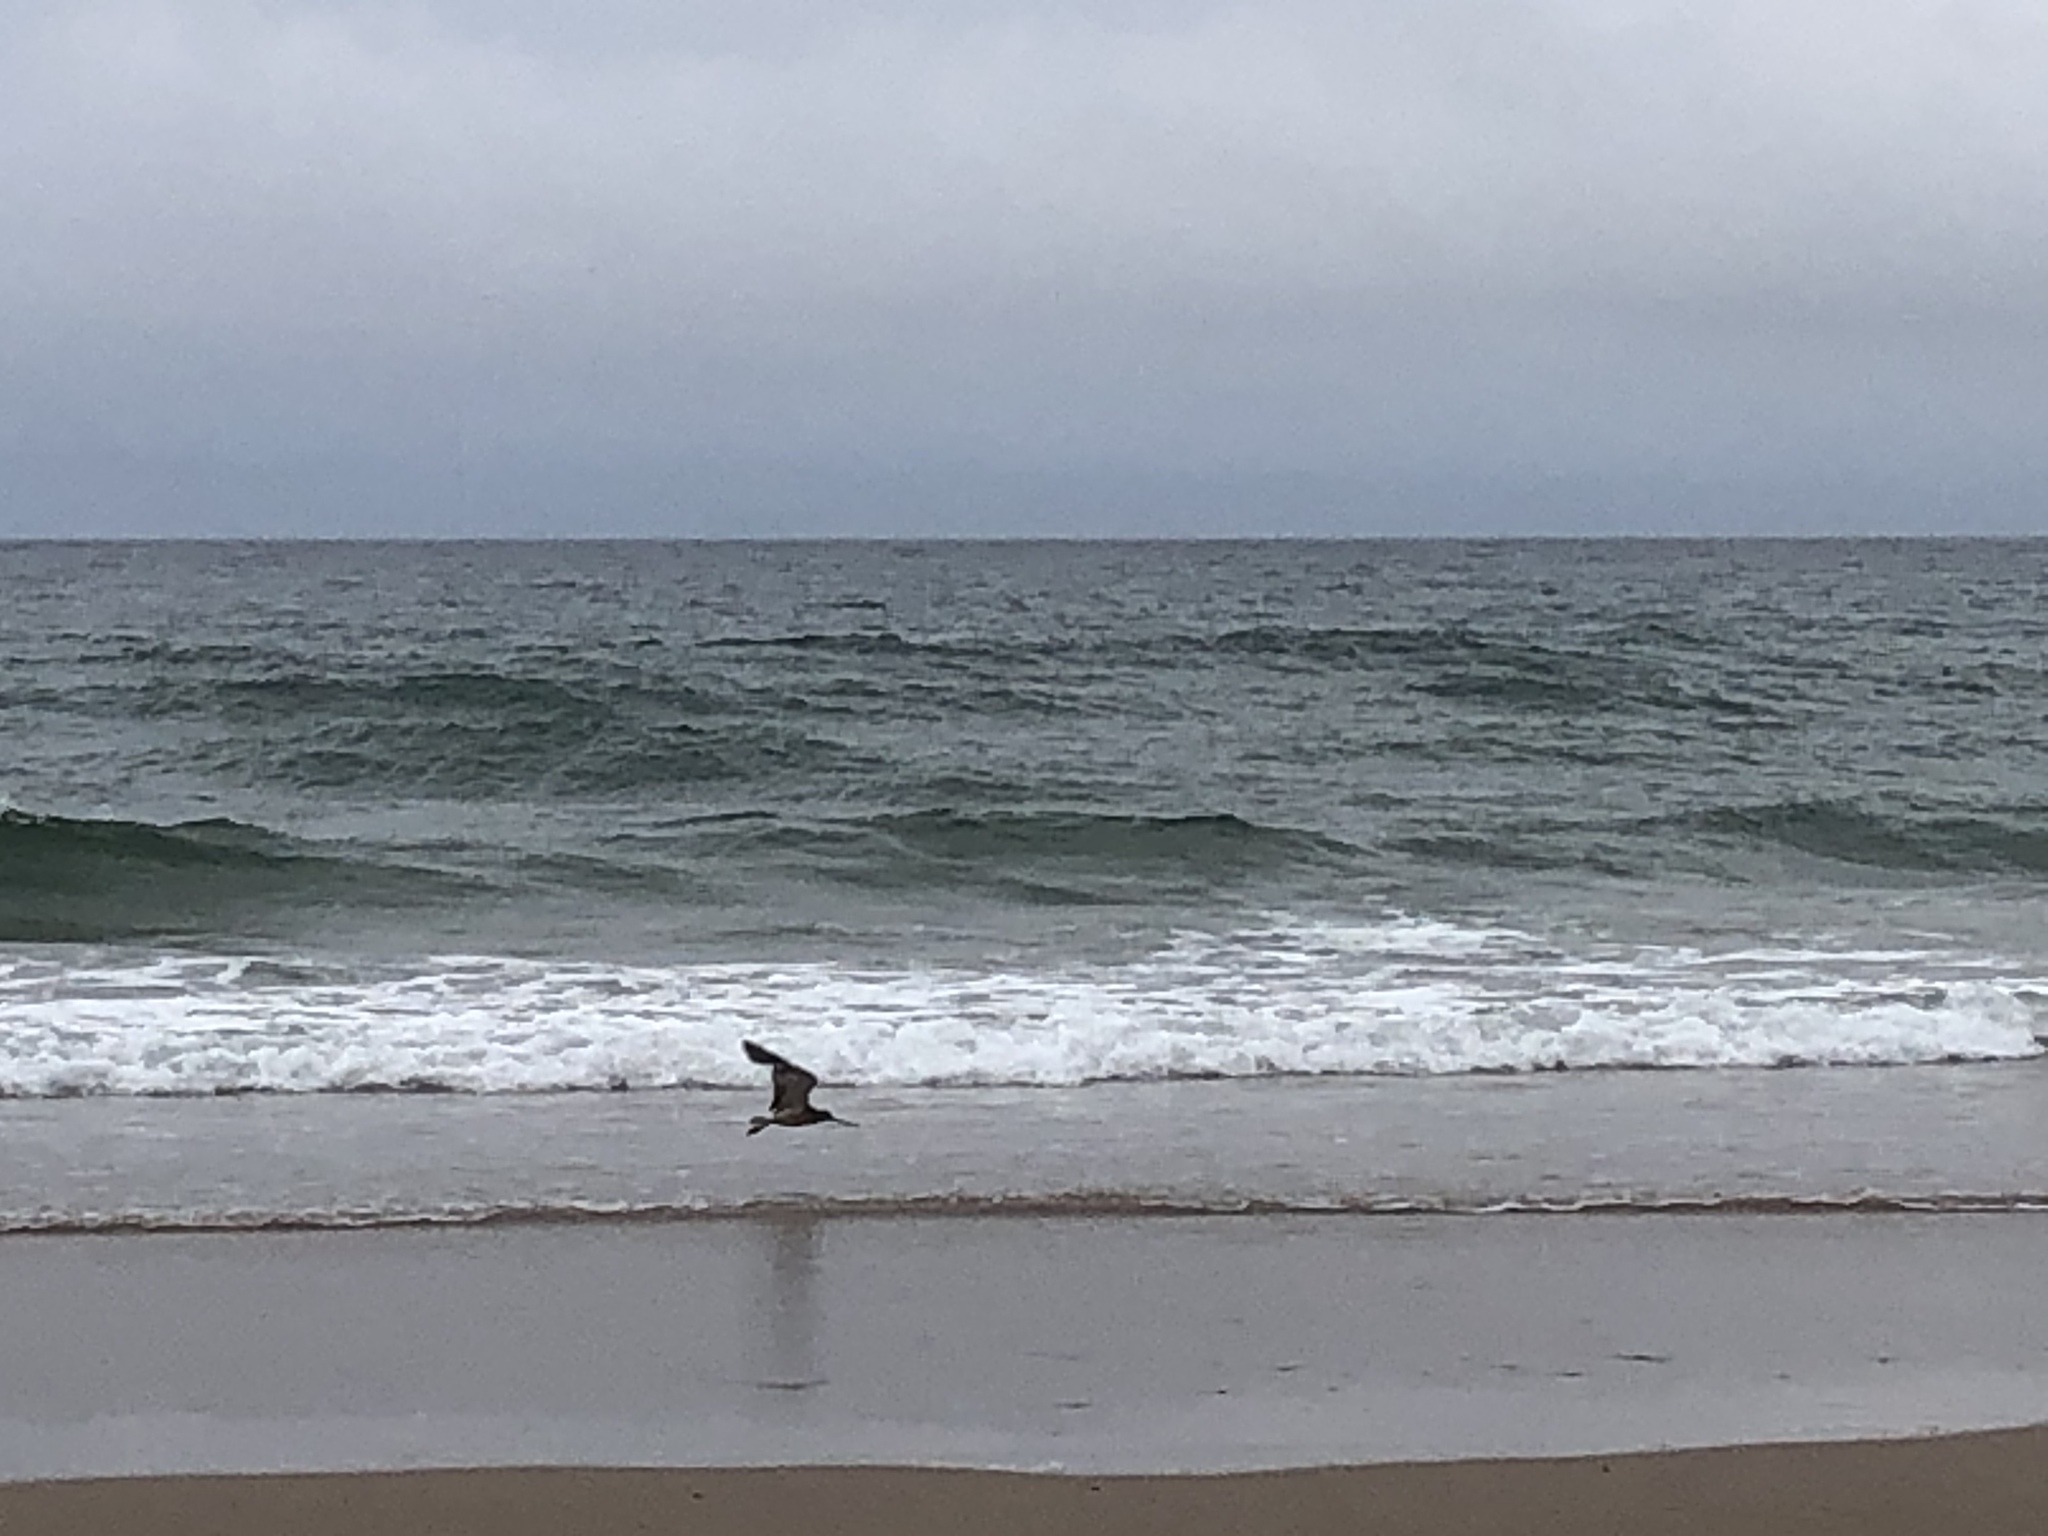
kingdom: Animalia
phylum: Chordata
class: Aves
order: Charadriiformes
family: Scolopacidae
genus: Limosa
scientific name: Limosa lapponica
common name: Bar-tailed godwit
